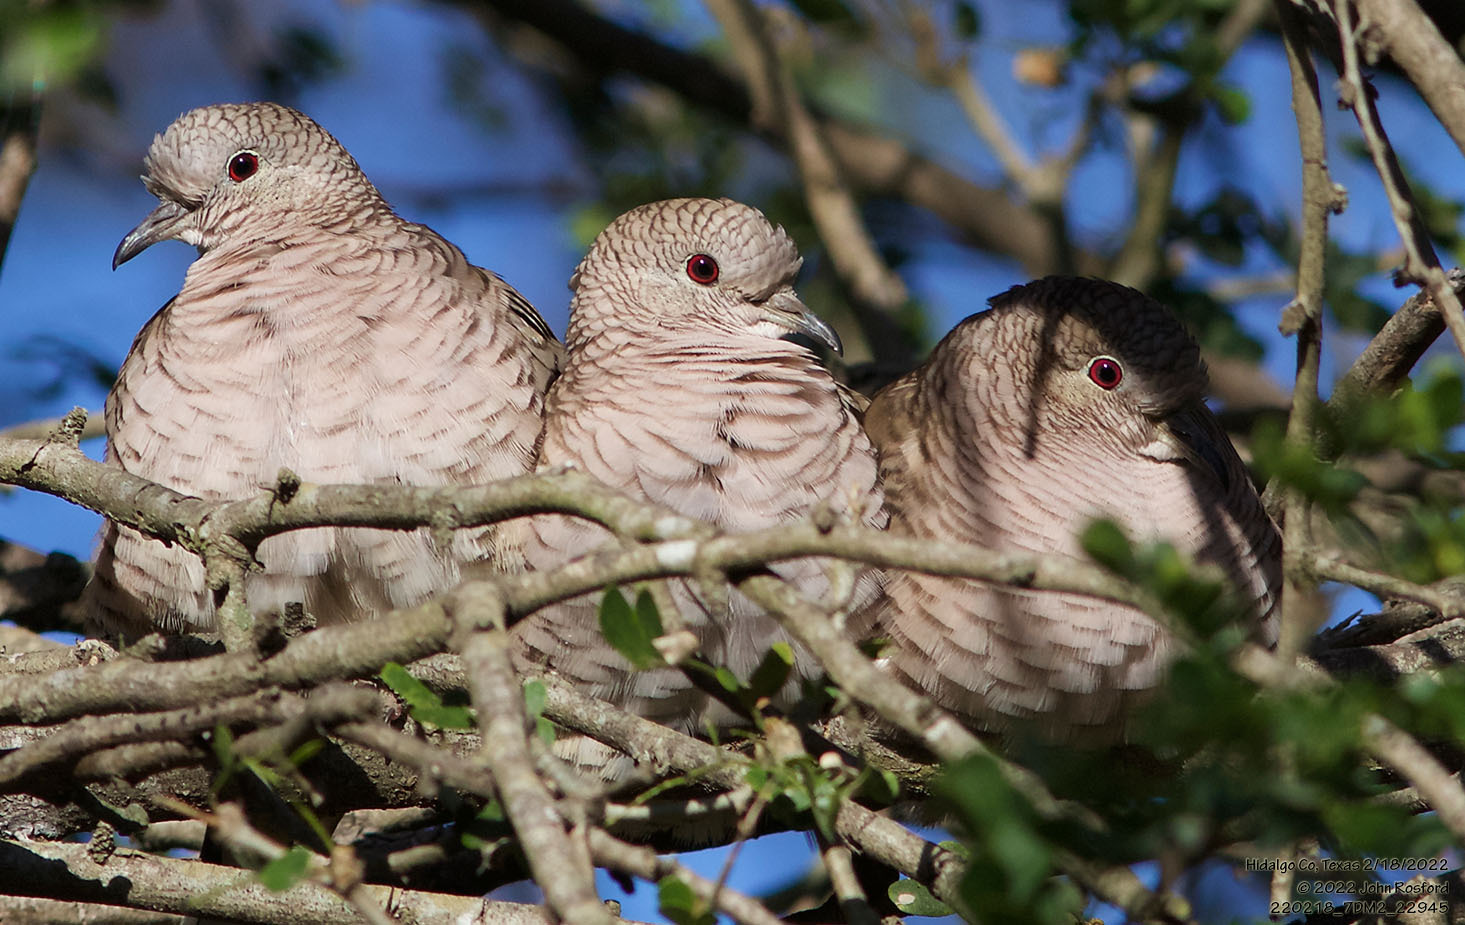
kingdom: Animalia
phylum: Chordata
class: Aves
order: Columbiformes
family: Columbidae
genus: Columbina
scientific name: Columbina inca
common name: Inca dove
